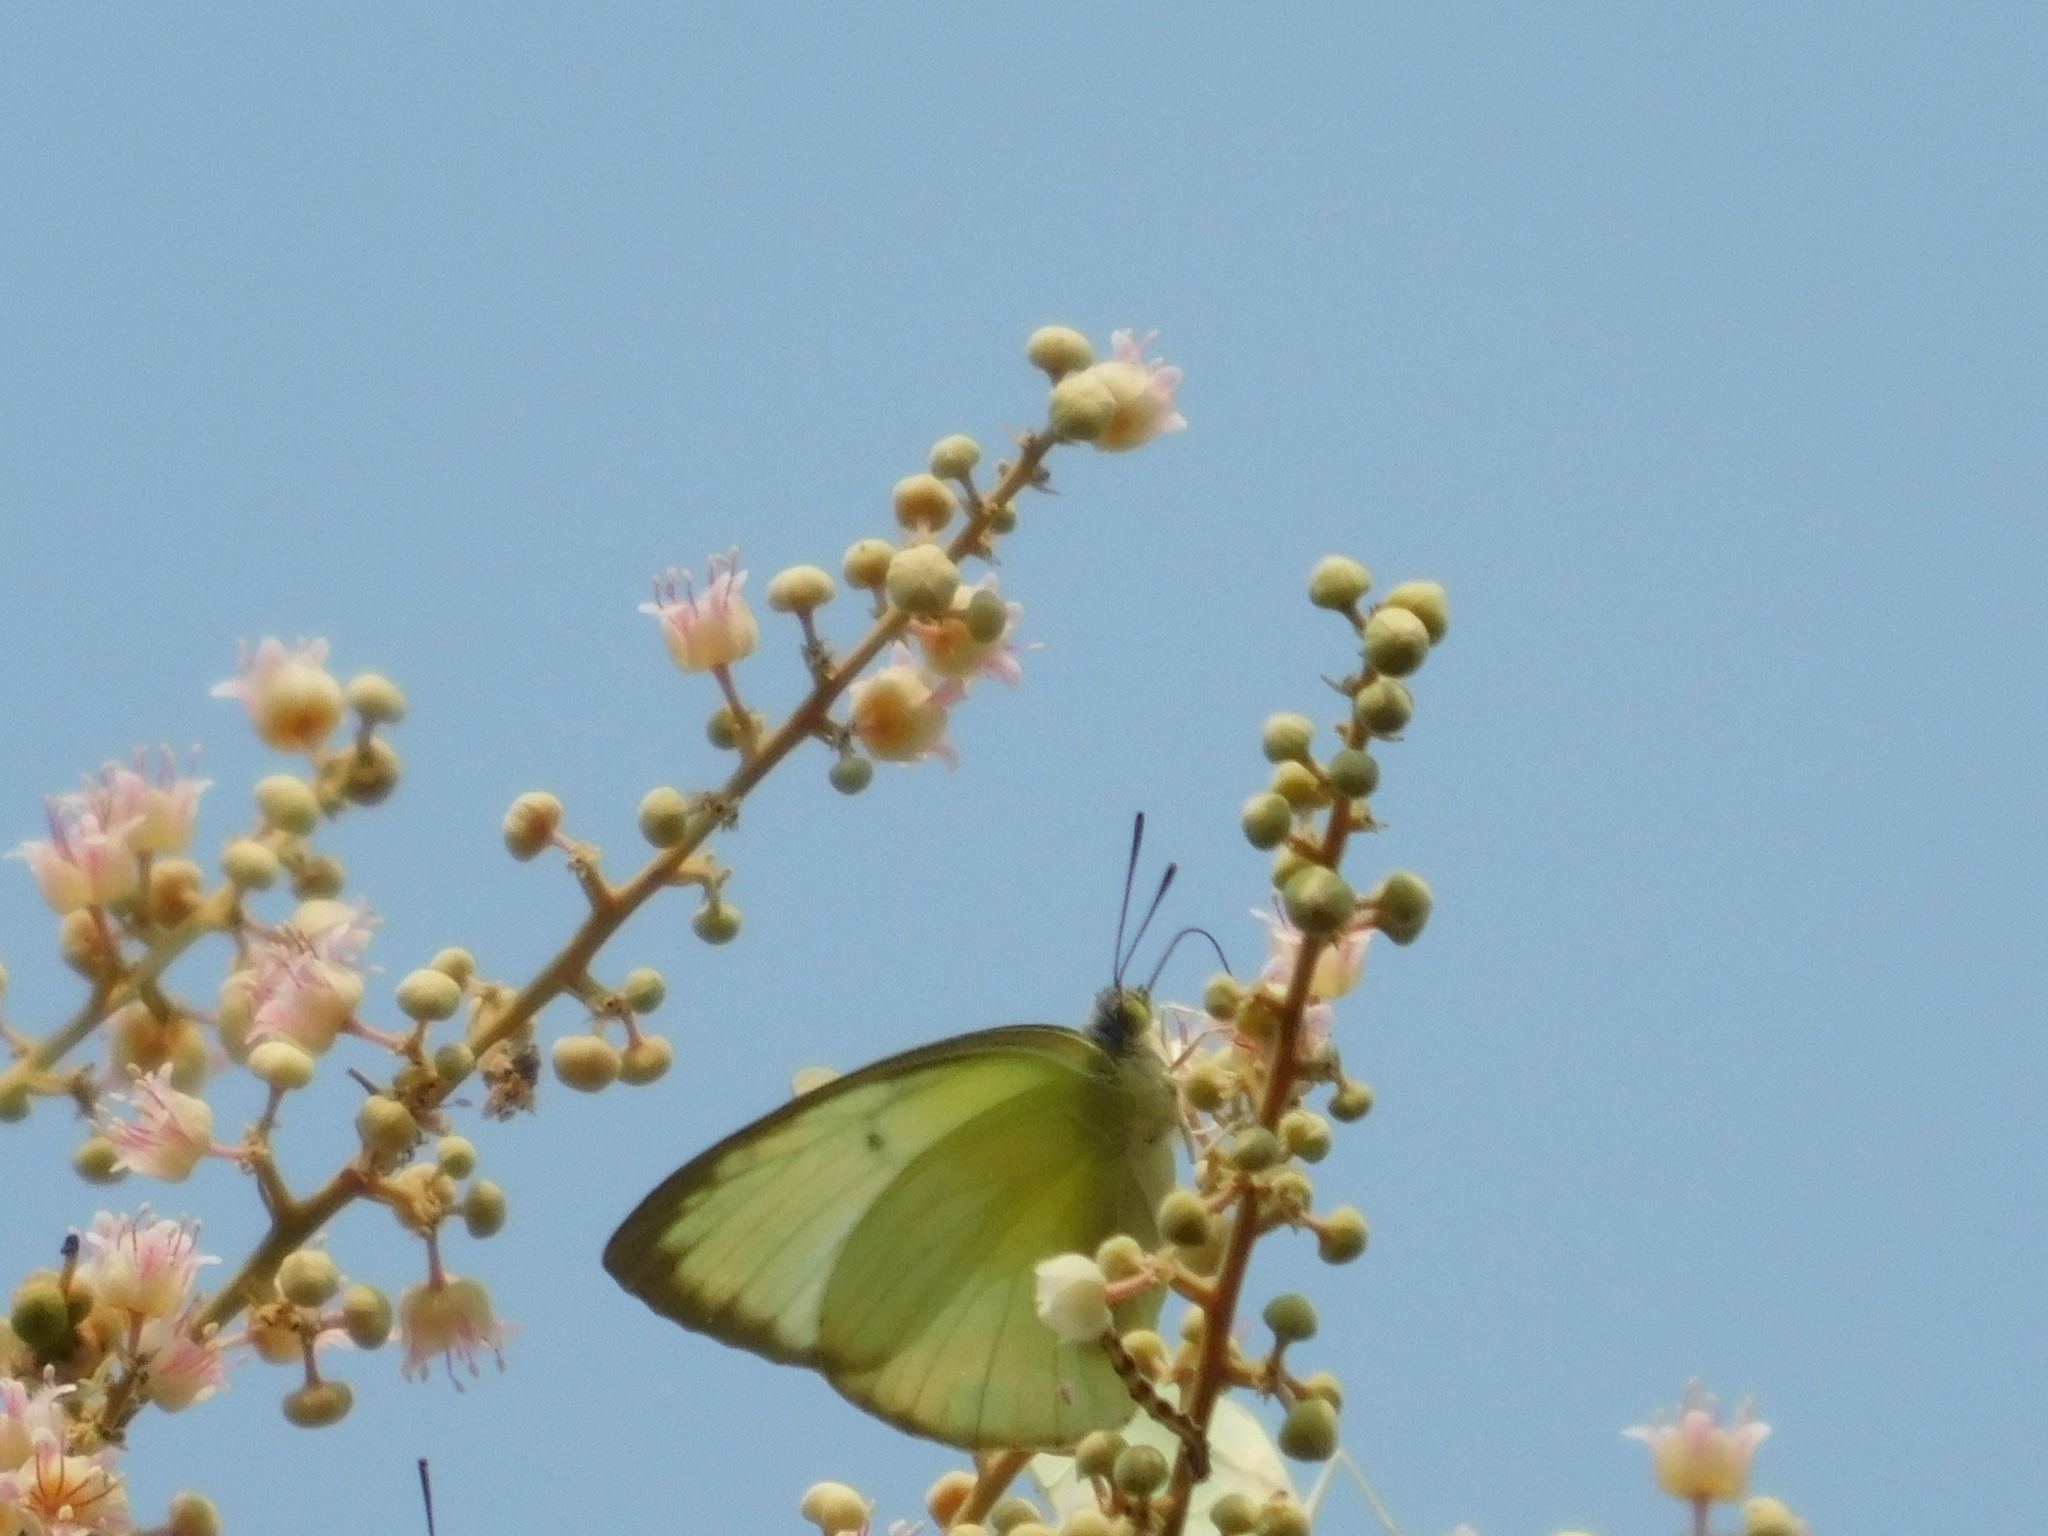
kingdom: Animalia
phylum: Arthropoda
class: Insecta
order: Lepidoptera
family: Pieridae
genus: Catopsilia
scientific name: Catopsilia pomona
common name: Common emigrant
